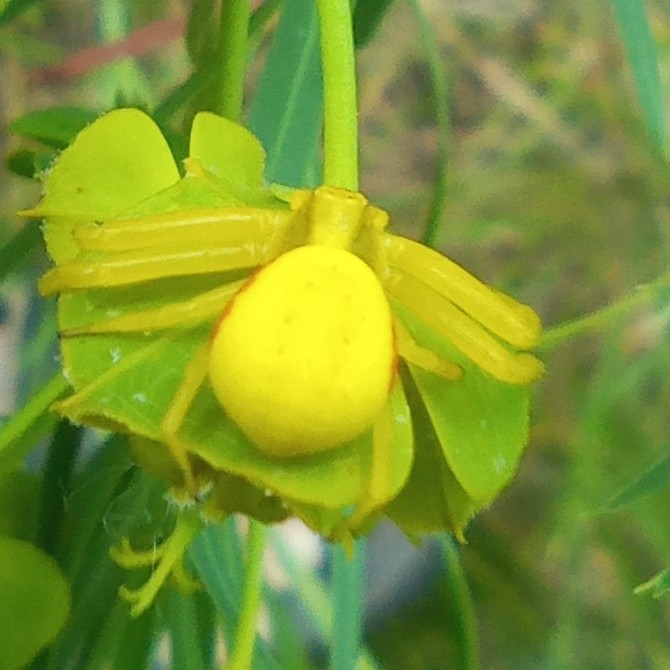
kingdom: Animalia
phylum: Arthropoda
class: Arachnida
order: Araneae
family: Thomisidae
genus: Misumena
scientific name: Misumena vatia
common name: Goldenrod crab spider
